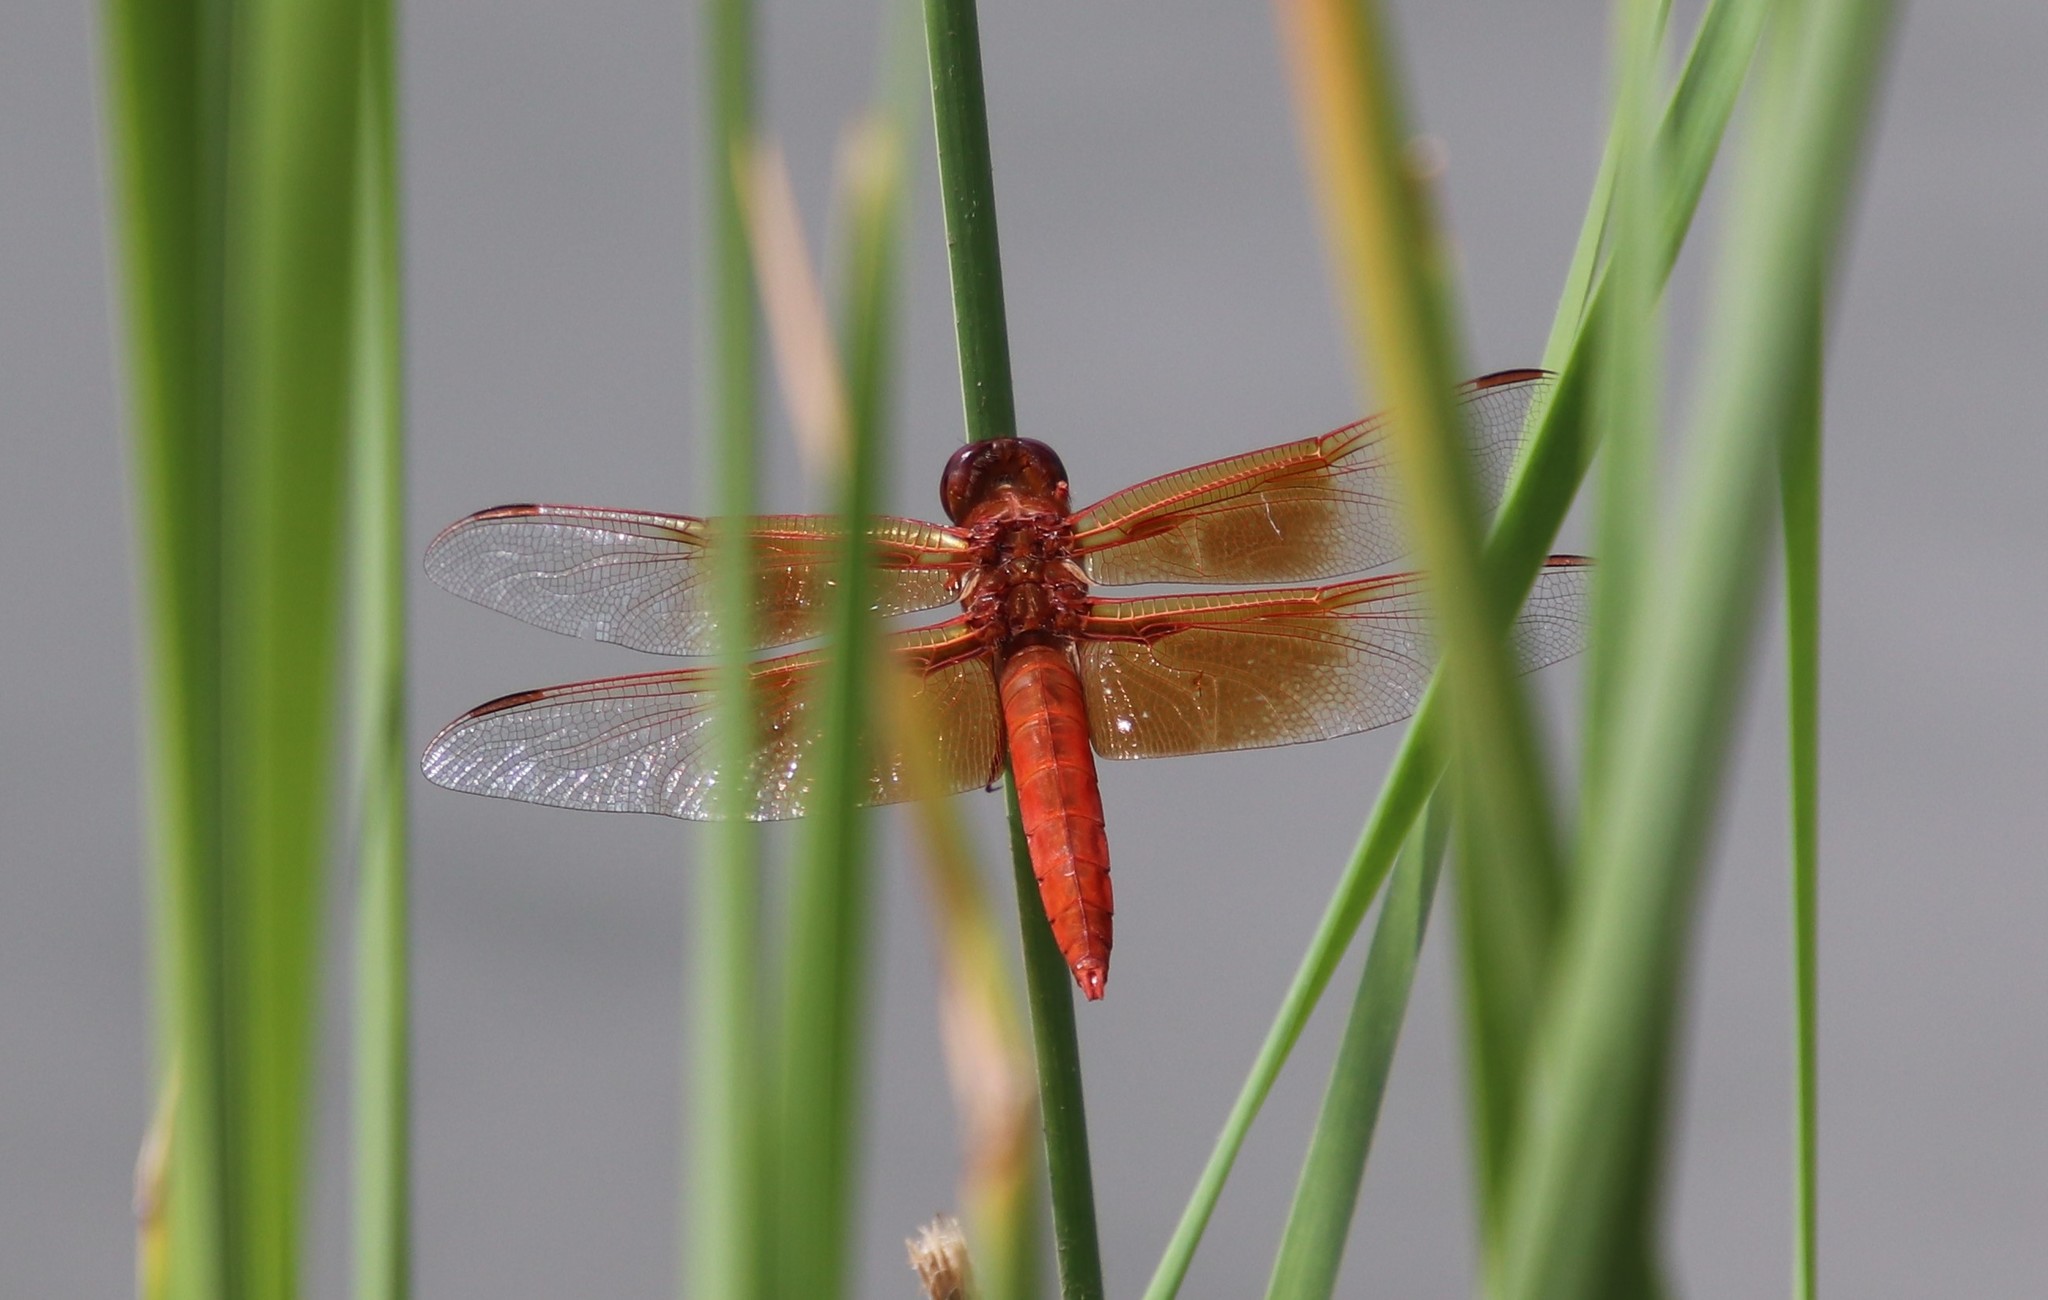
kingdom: Animalia
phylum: Arthropoda
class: Insecta
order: Odonata
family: Libellulidae
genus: Libellula
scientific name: Libellula saturata
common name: Flame skimmer
